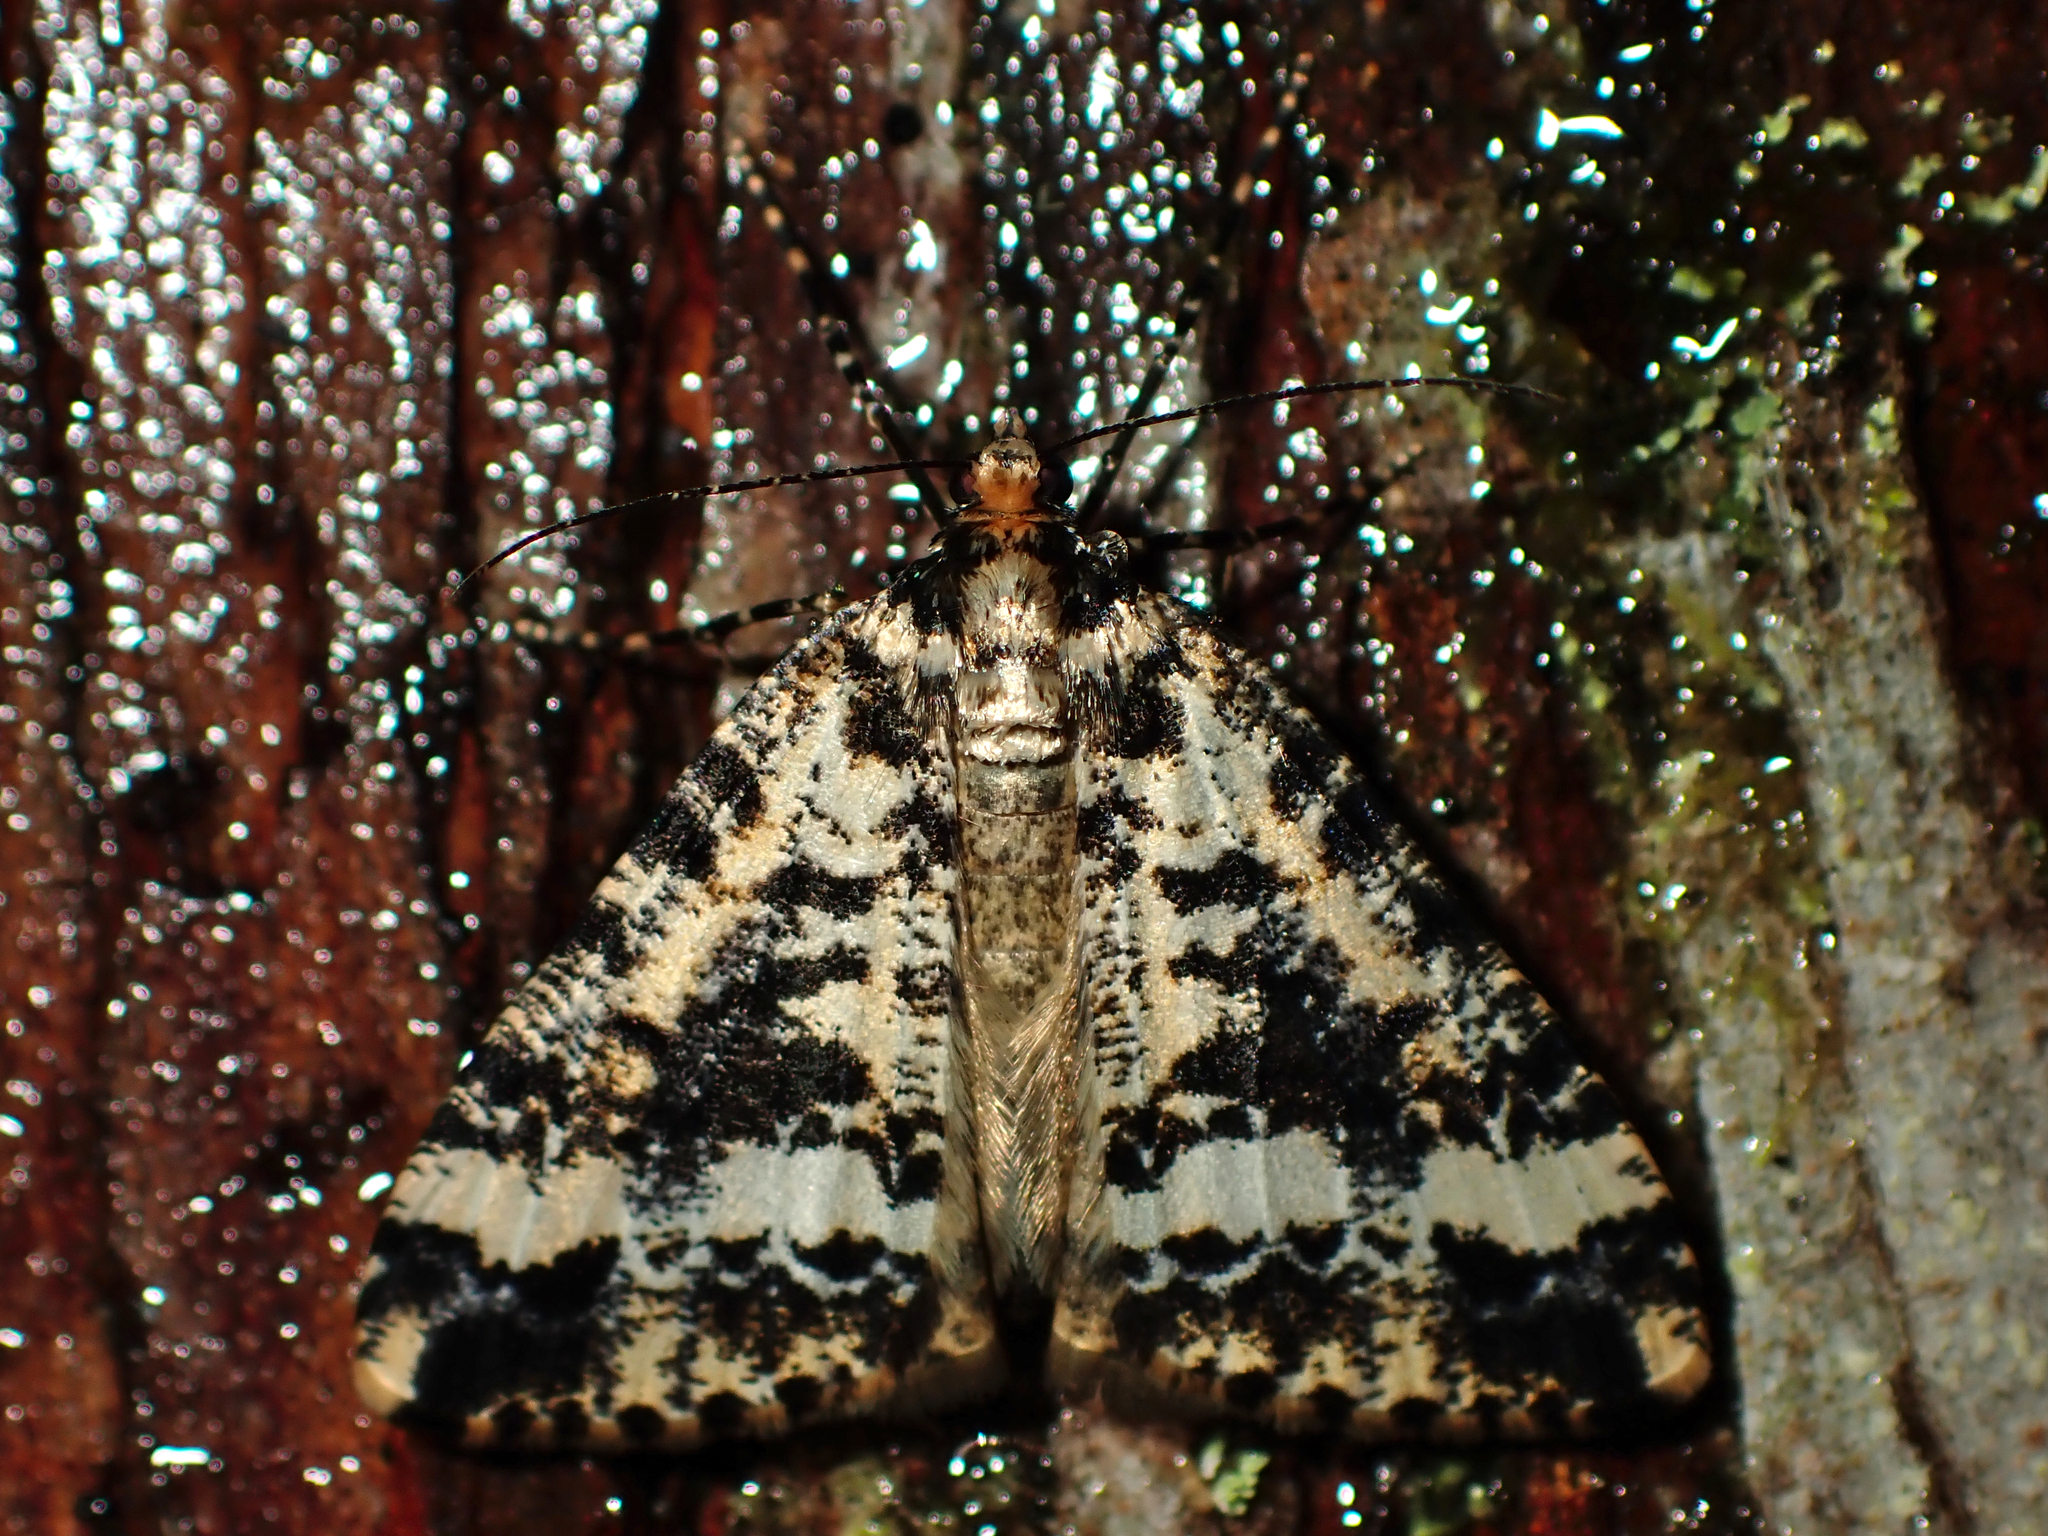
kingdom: Animalia
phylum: Arthropoda
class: Insecta
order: Lepidoptera
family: Geometridae
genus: Pseudocoremia
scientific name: Pseudocoremia leucelaea
